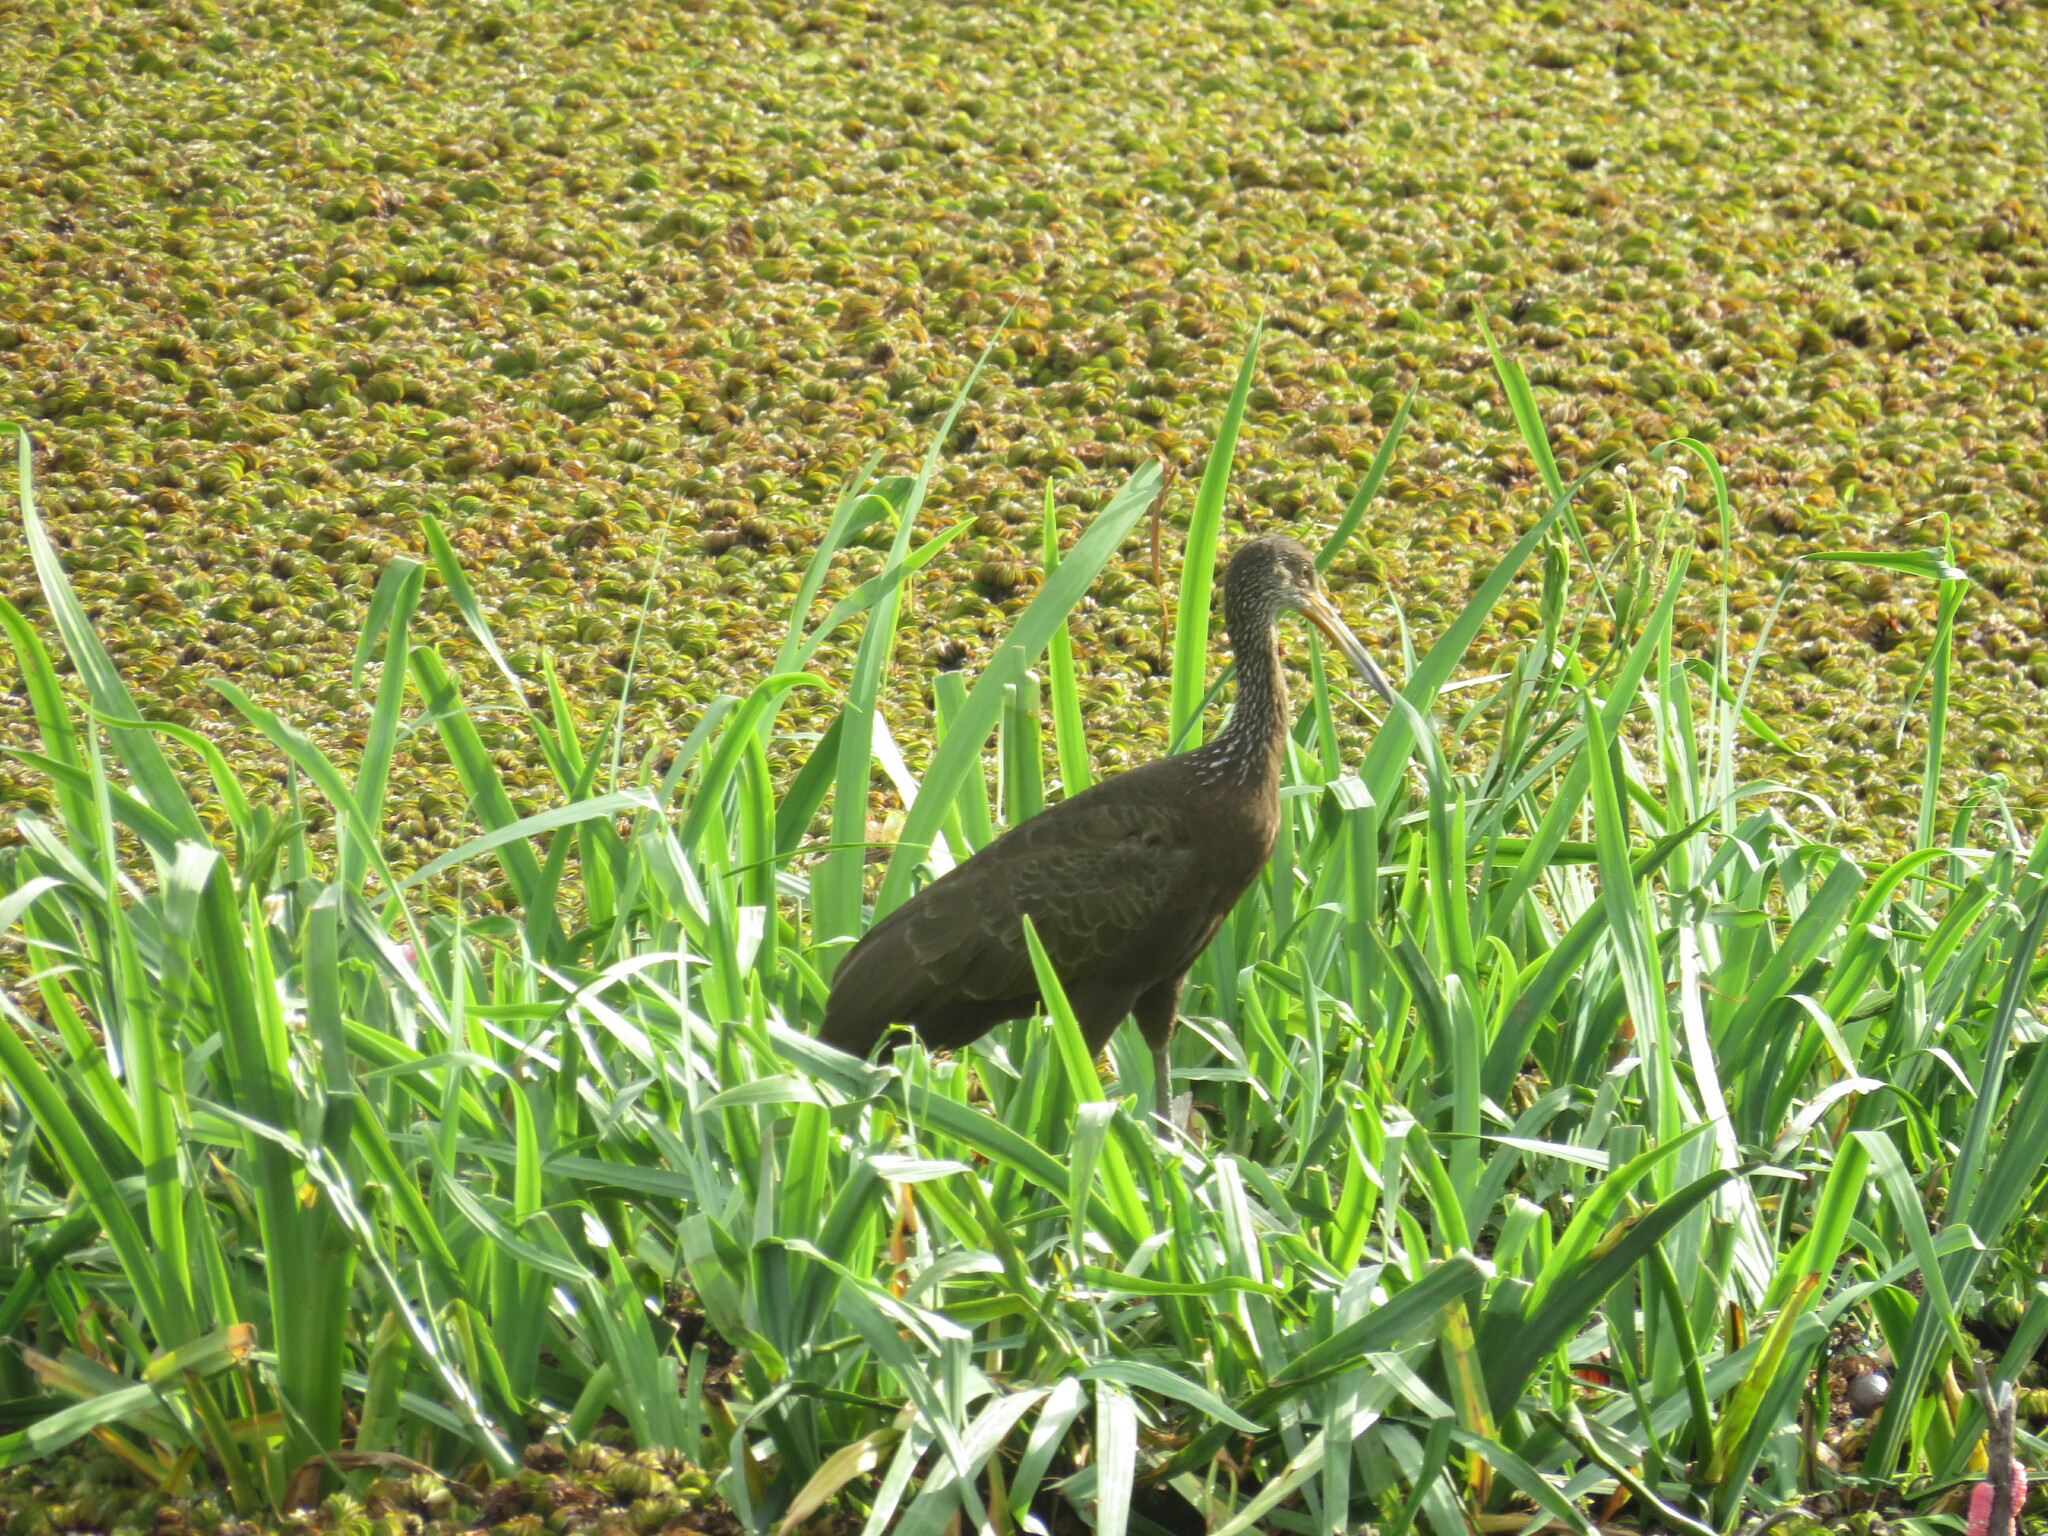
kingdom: Animalia
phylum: Chordata
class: Aves
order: Gruiformes
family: Aramidae
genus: Aramus
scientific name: Aramus guarauna
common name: Limpkin
